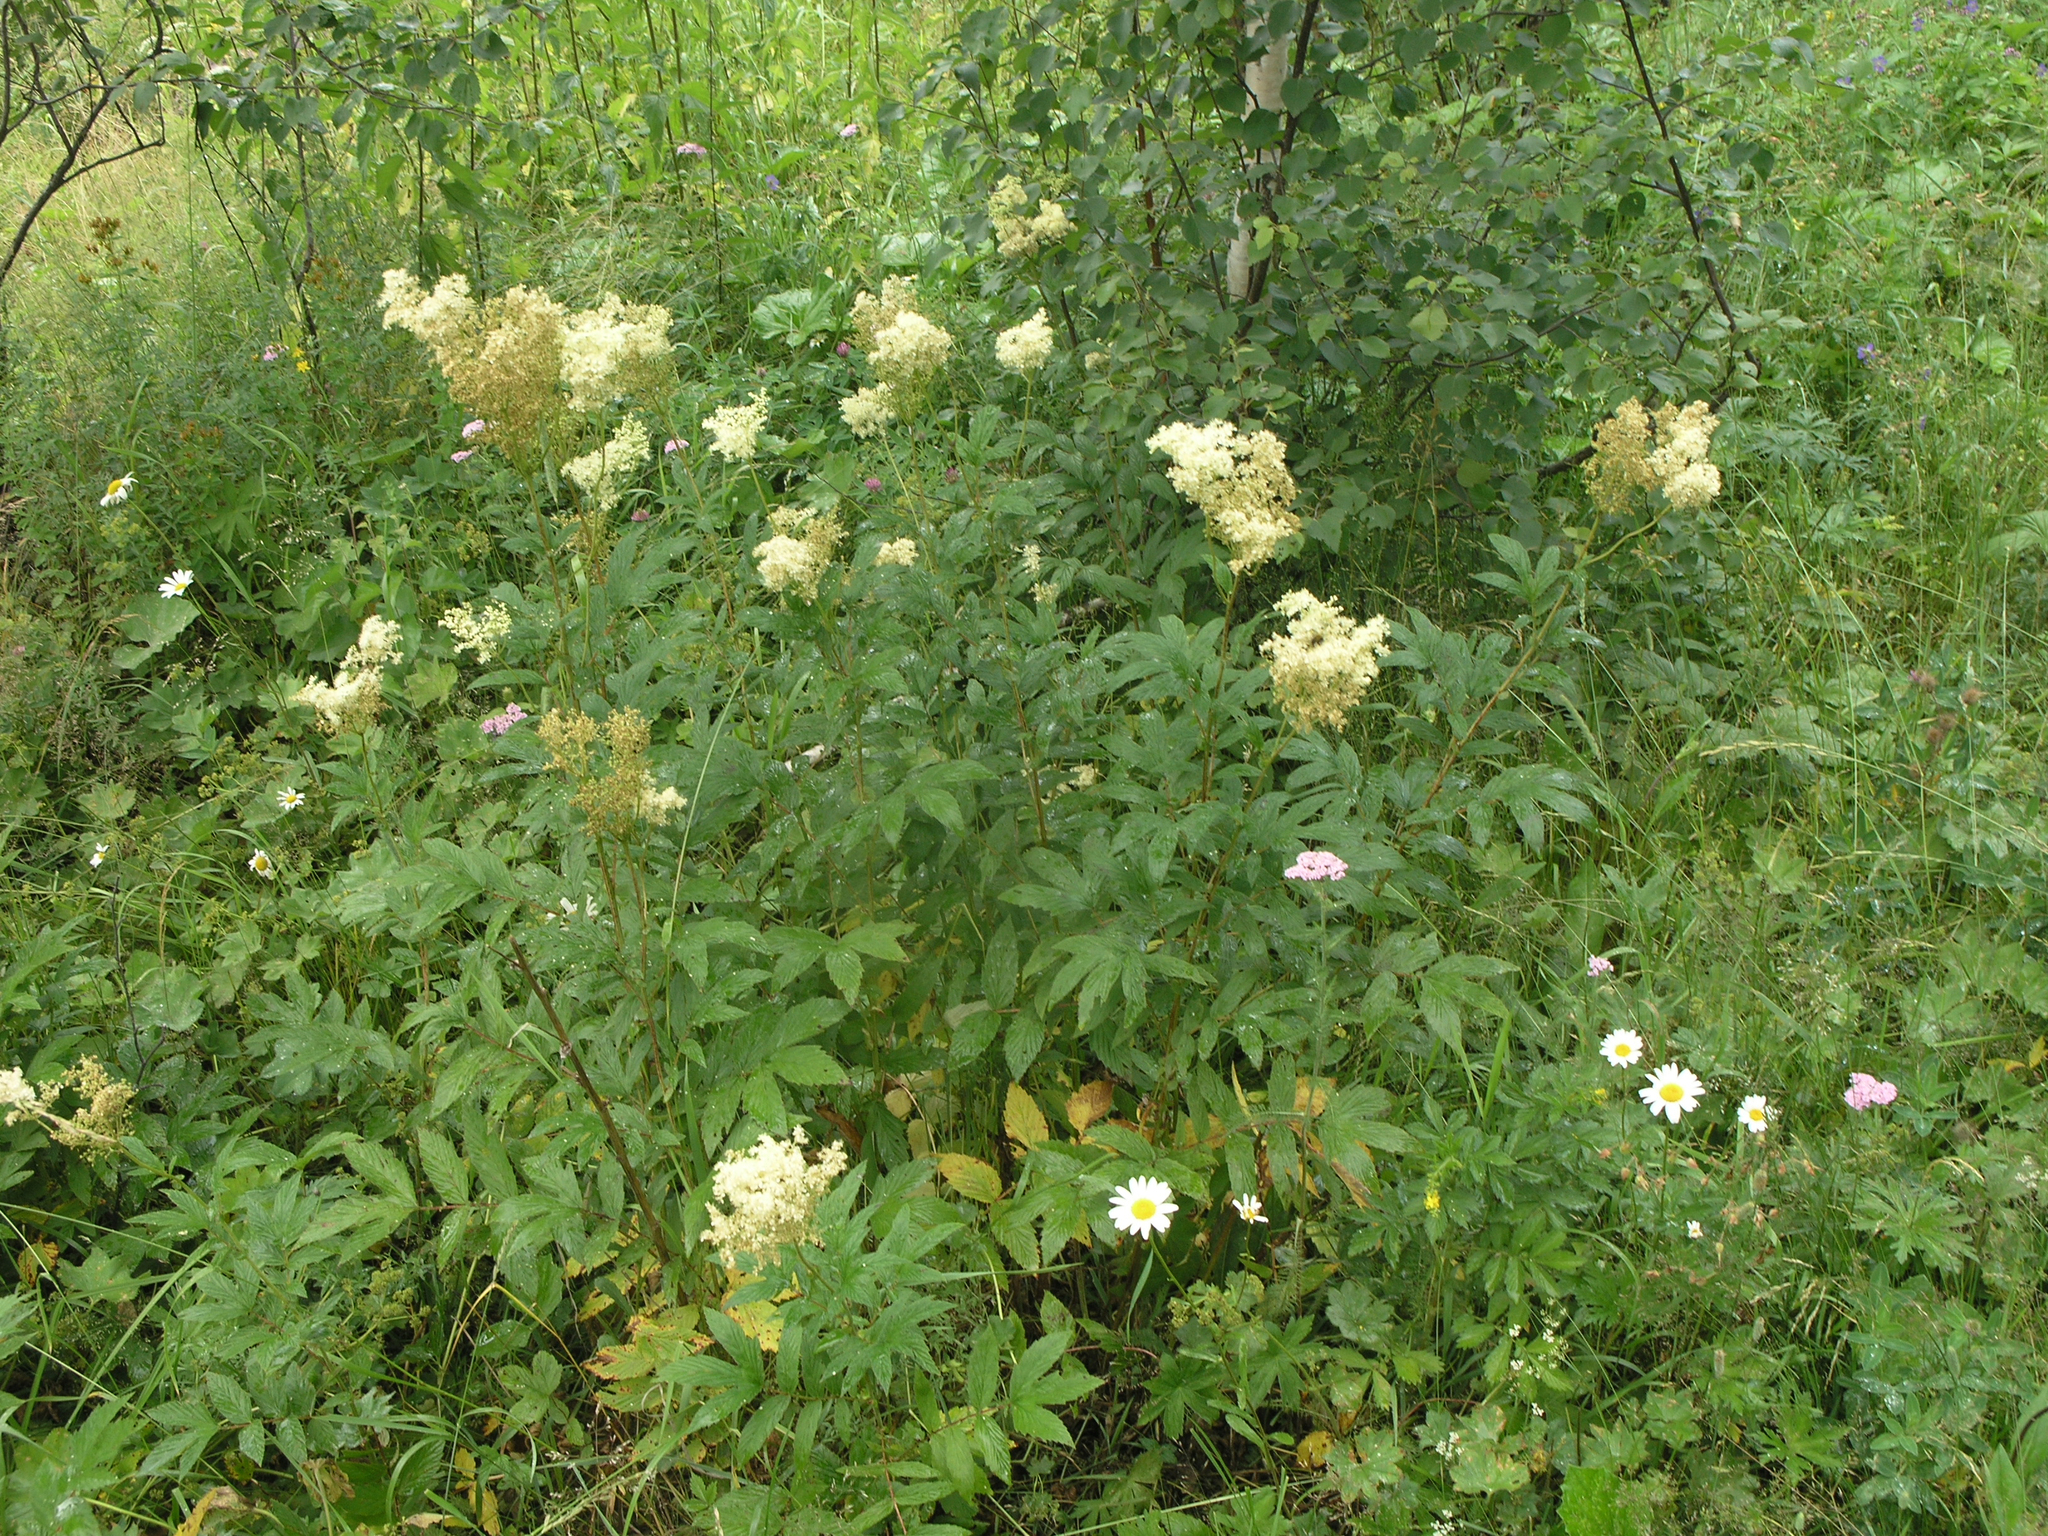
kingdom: Plantae
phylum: Tracheophyta
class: Magnoliopsida
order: Rosales
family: Rosaceae
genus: Filipendula
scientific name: Filipendula ulmaria
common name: Meadowsweet
